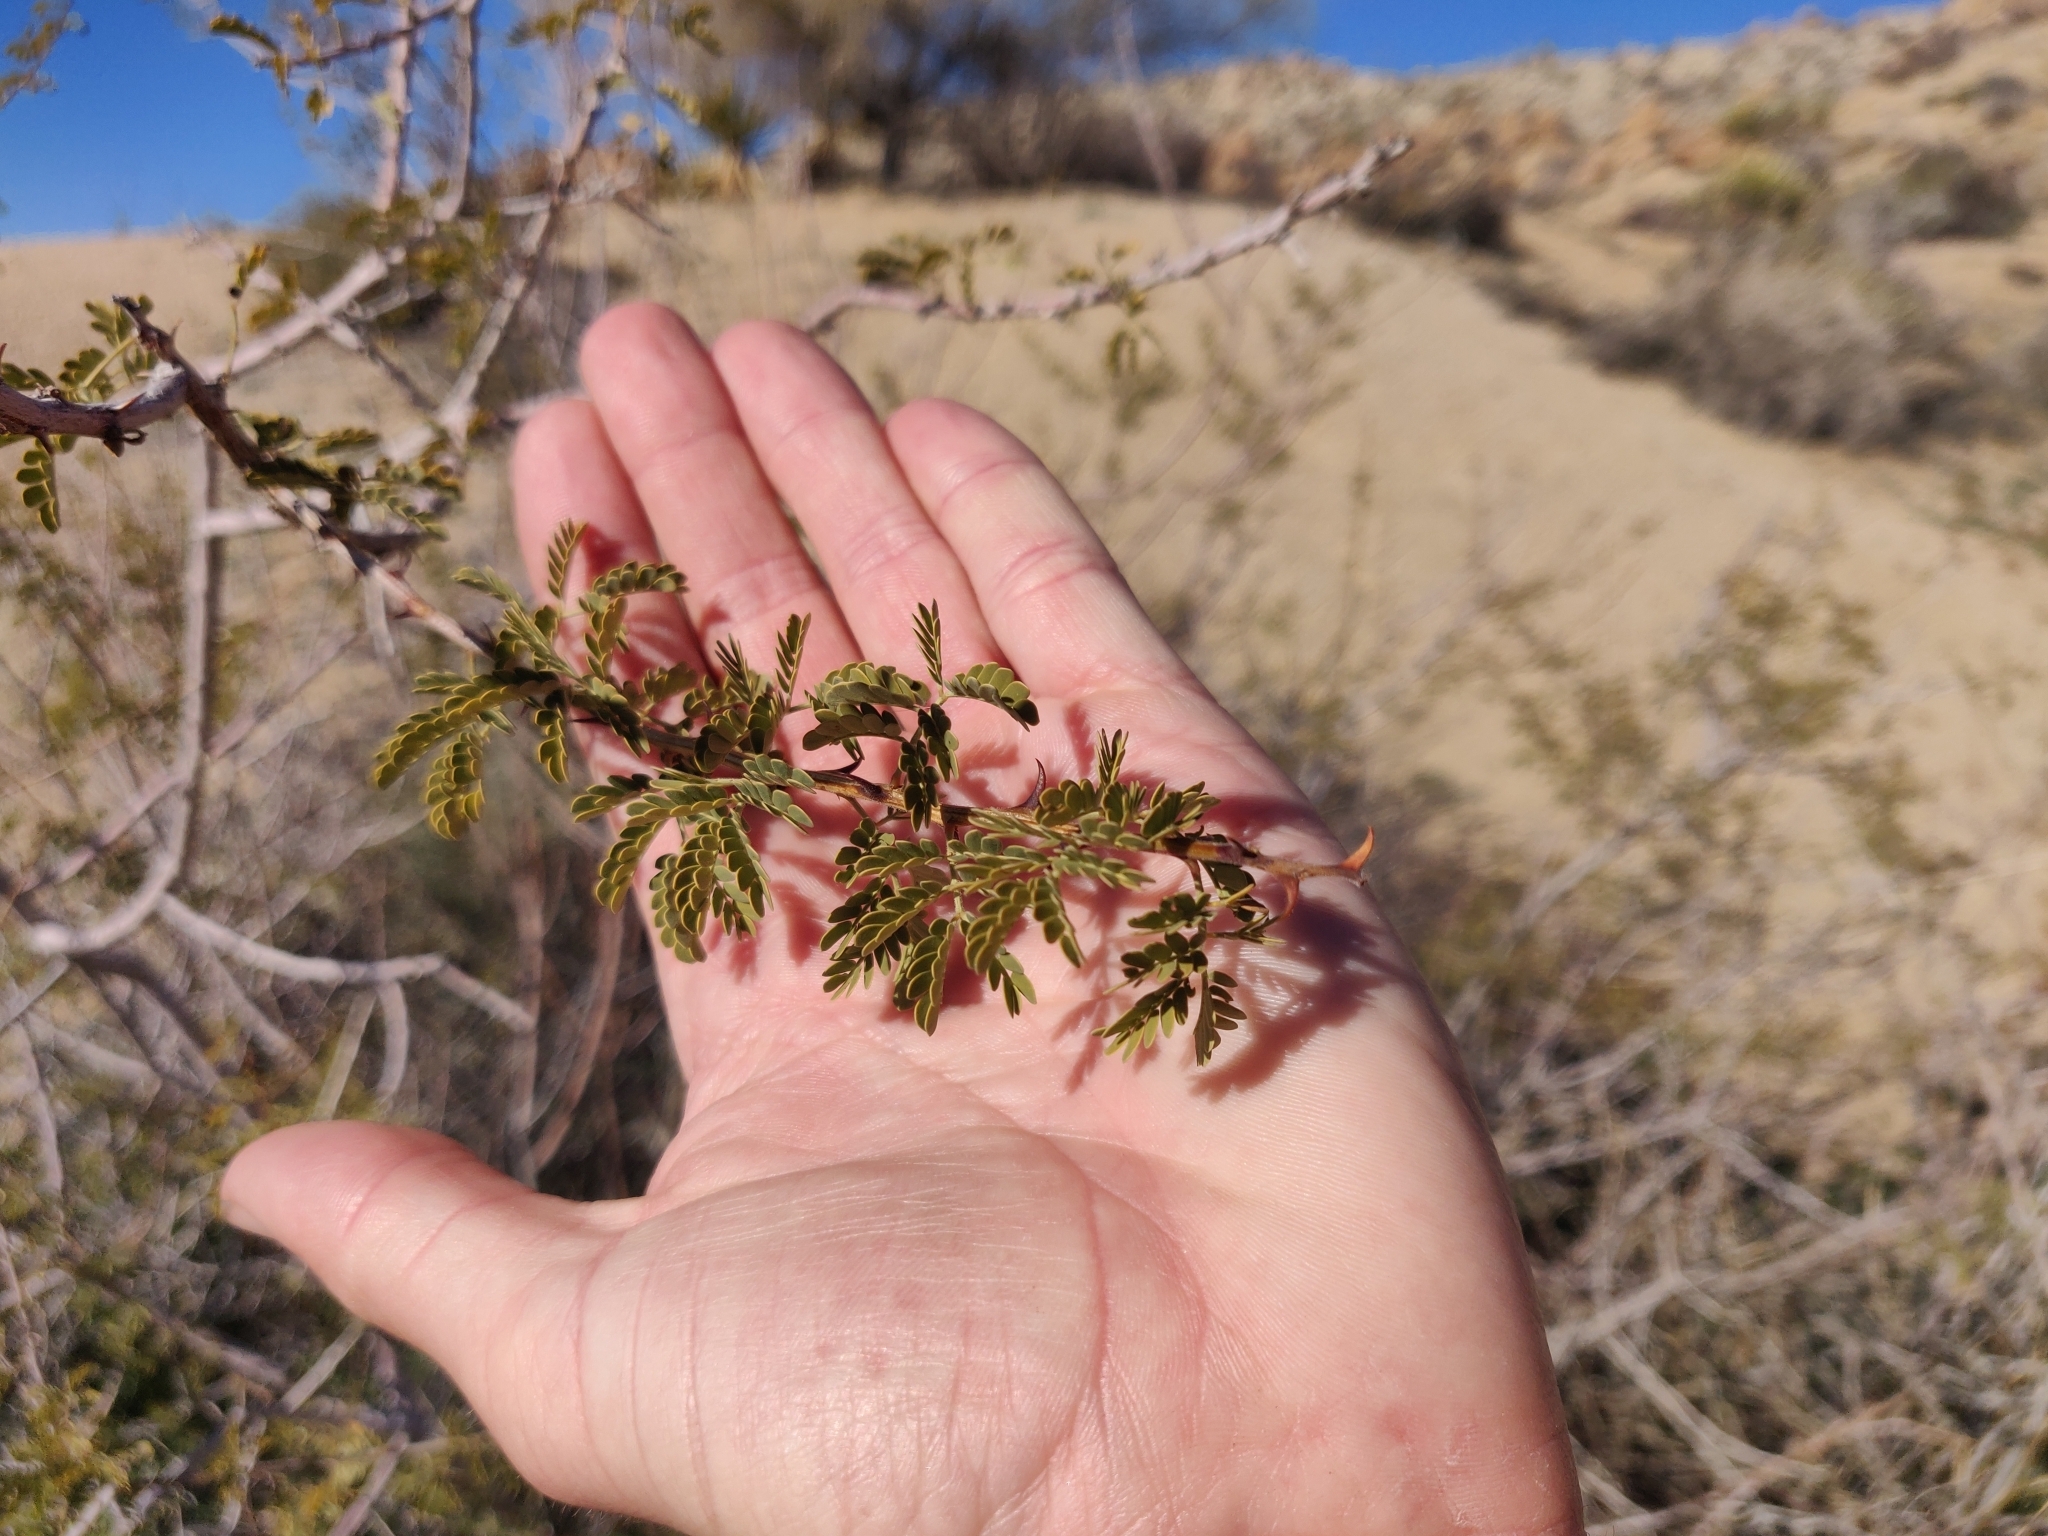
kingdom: Plantae
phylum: Tracheophyta
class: Magnoliopsida
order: Fabales
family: Fabaceae
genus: Senegalia
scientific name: Senegalia greggii
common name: Texas-mimosa
